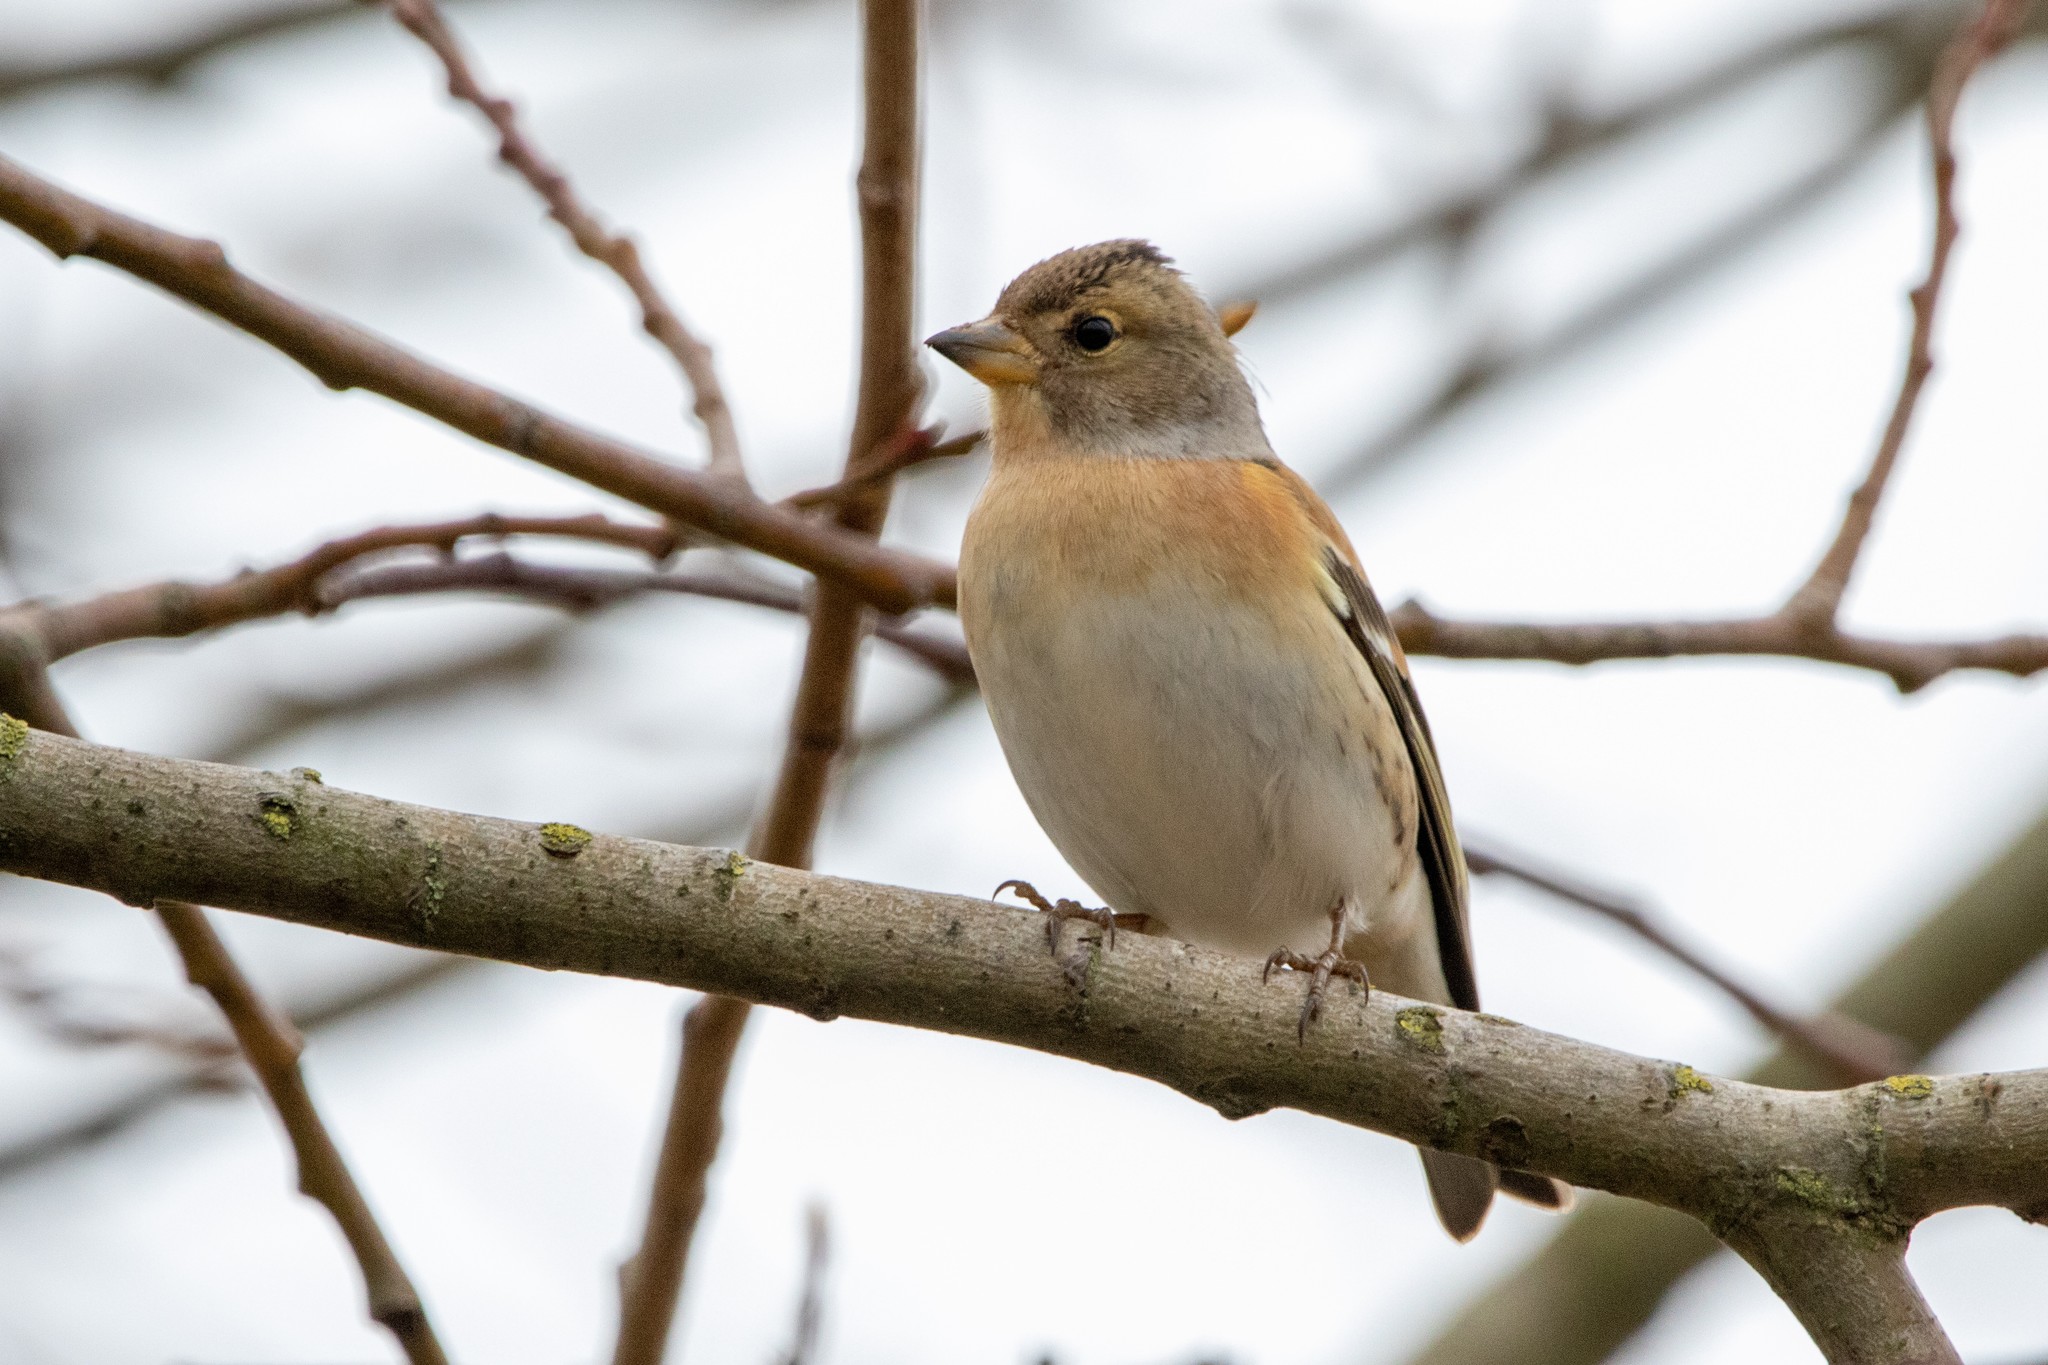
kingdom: Animalia
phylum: Chordata
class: Aves
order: Passeriformes
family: Fringillidae
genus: Fringilla
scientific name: Fringilla montifringilla
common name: Brambling
